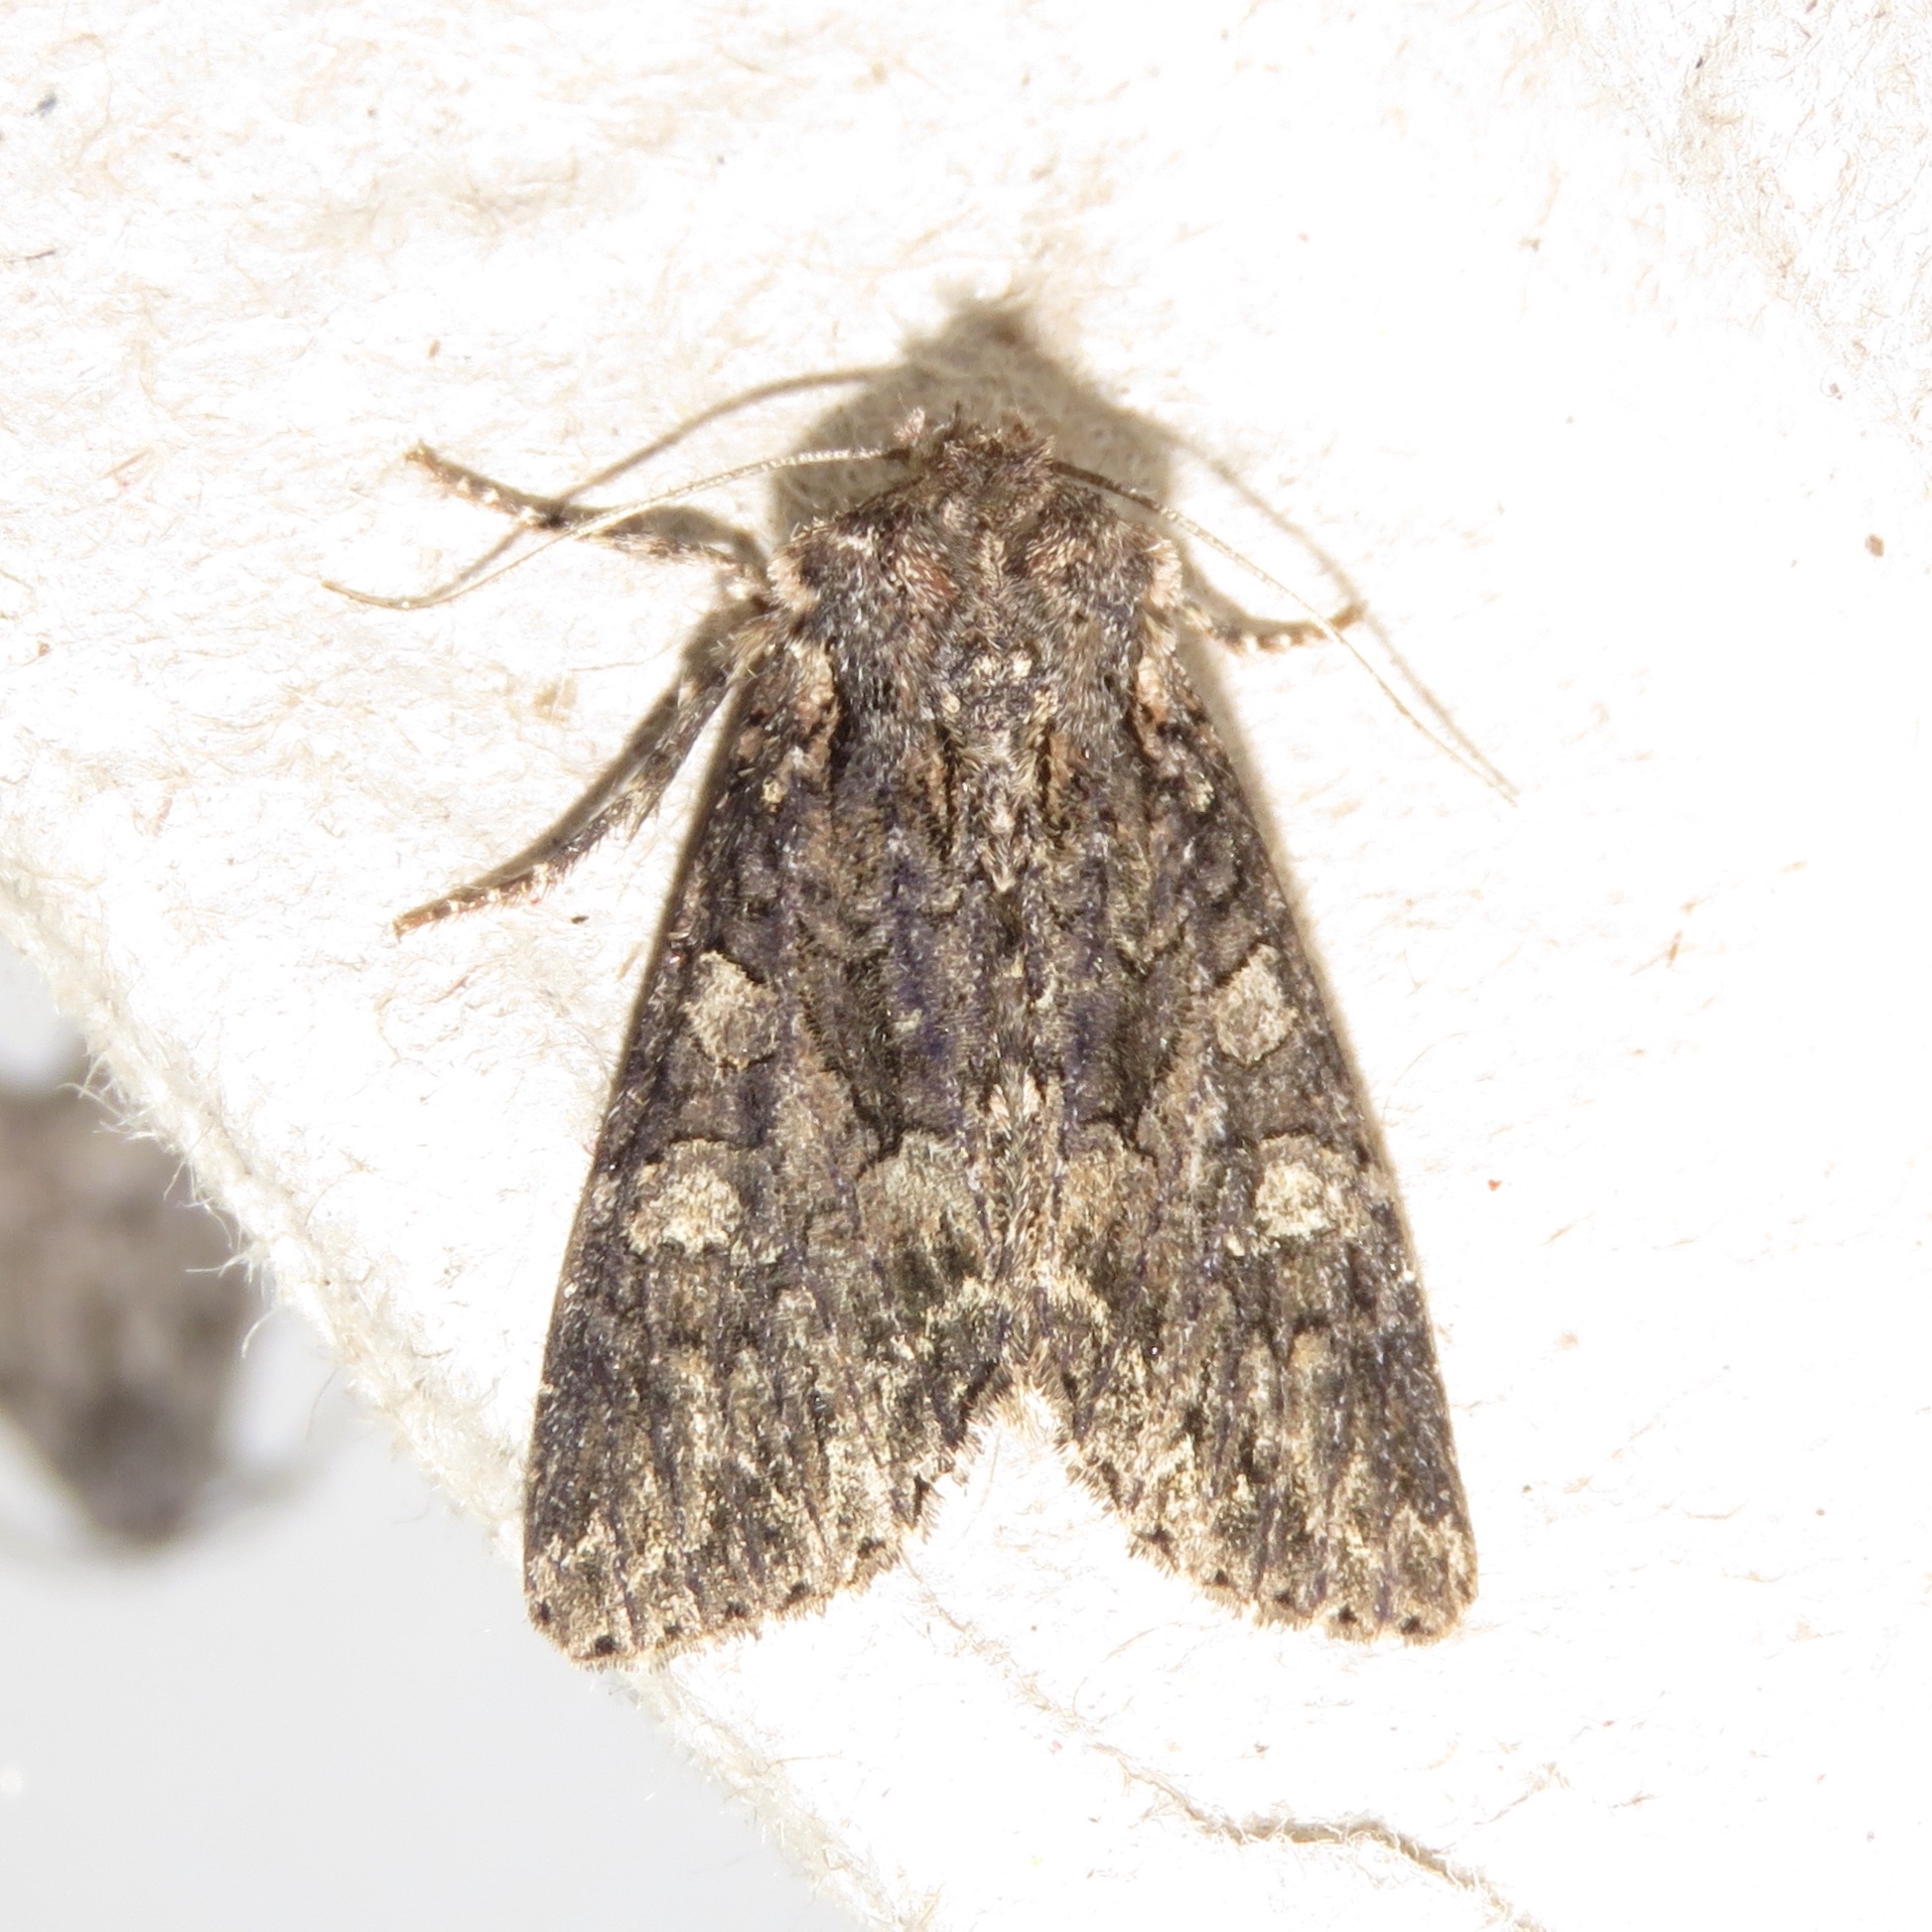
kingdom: Animalia
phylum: Arthropoda
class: Insecta
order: Lepidoptera
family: Noctuidae
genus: Apamea
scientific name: Apamea devastator
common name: Glassy cutworm
